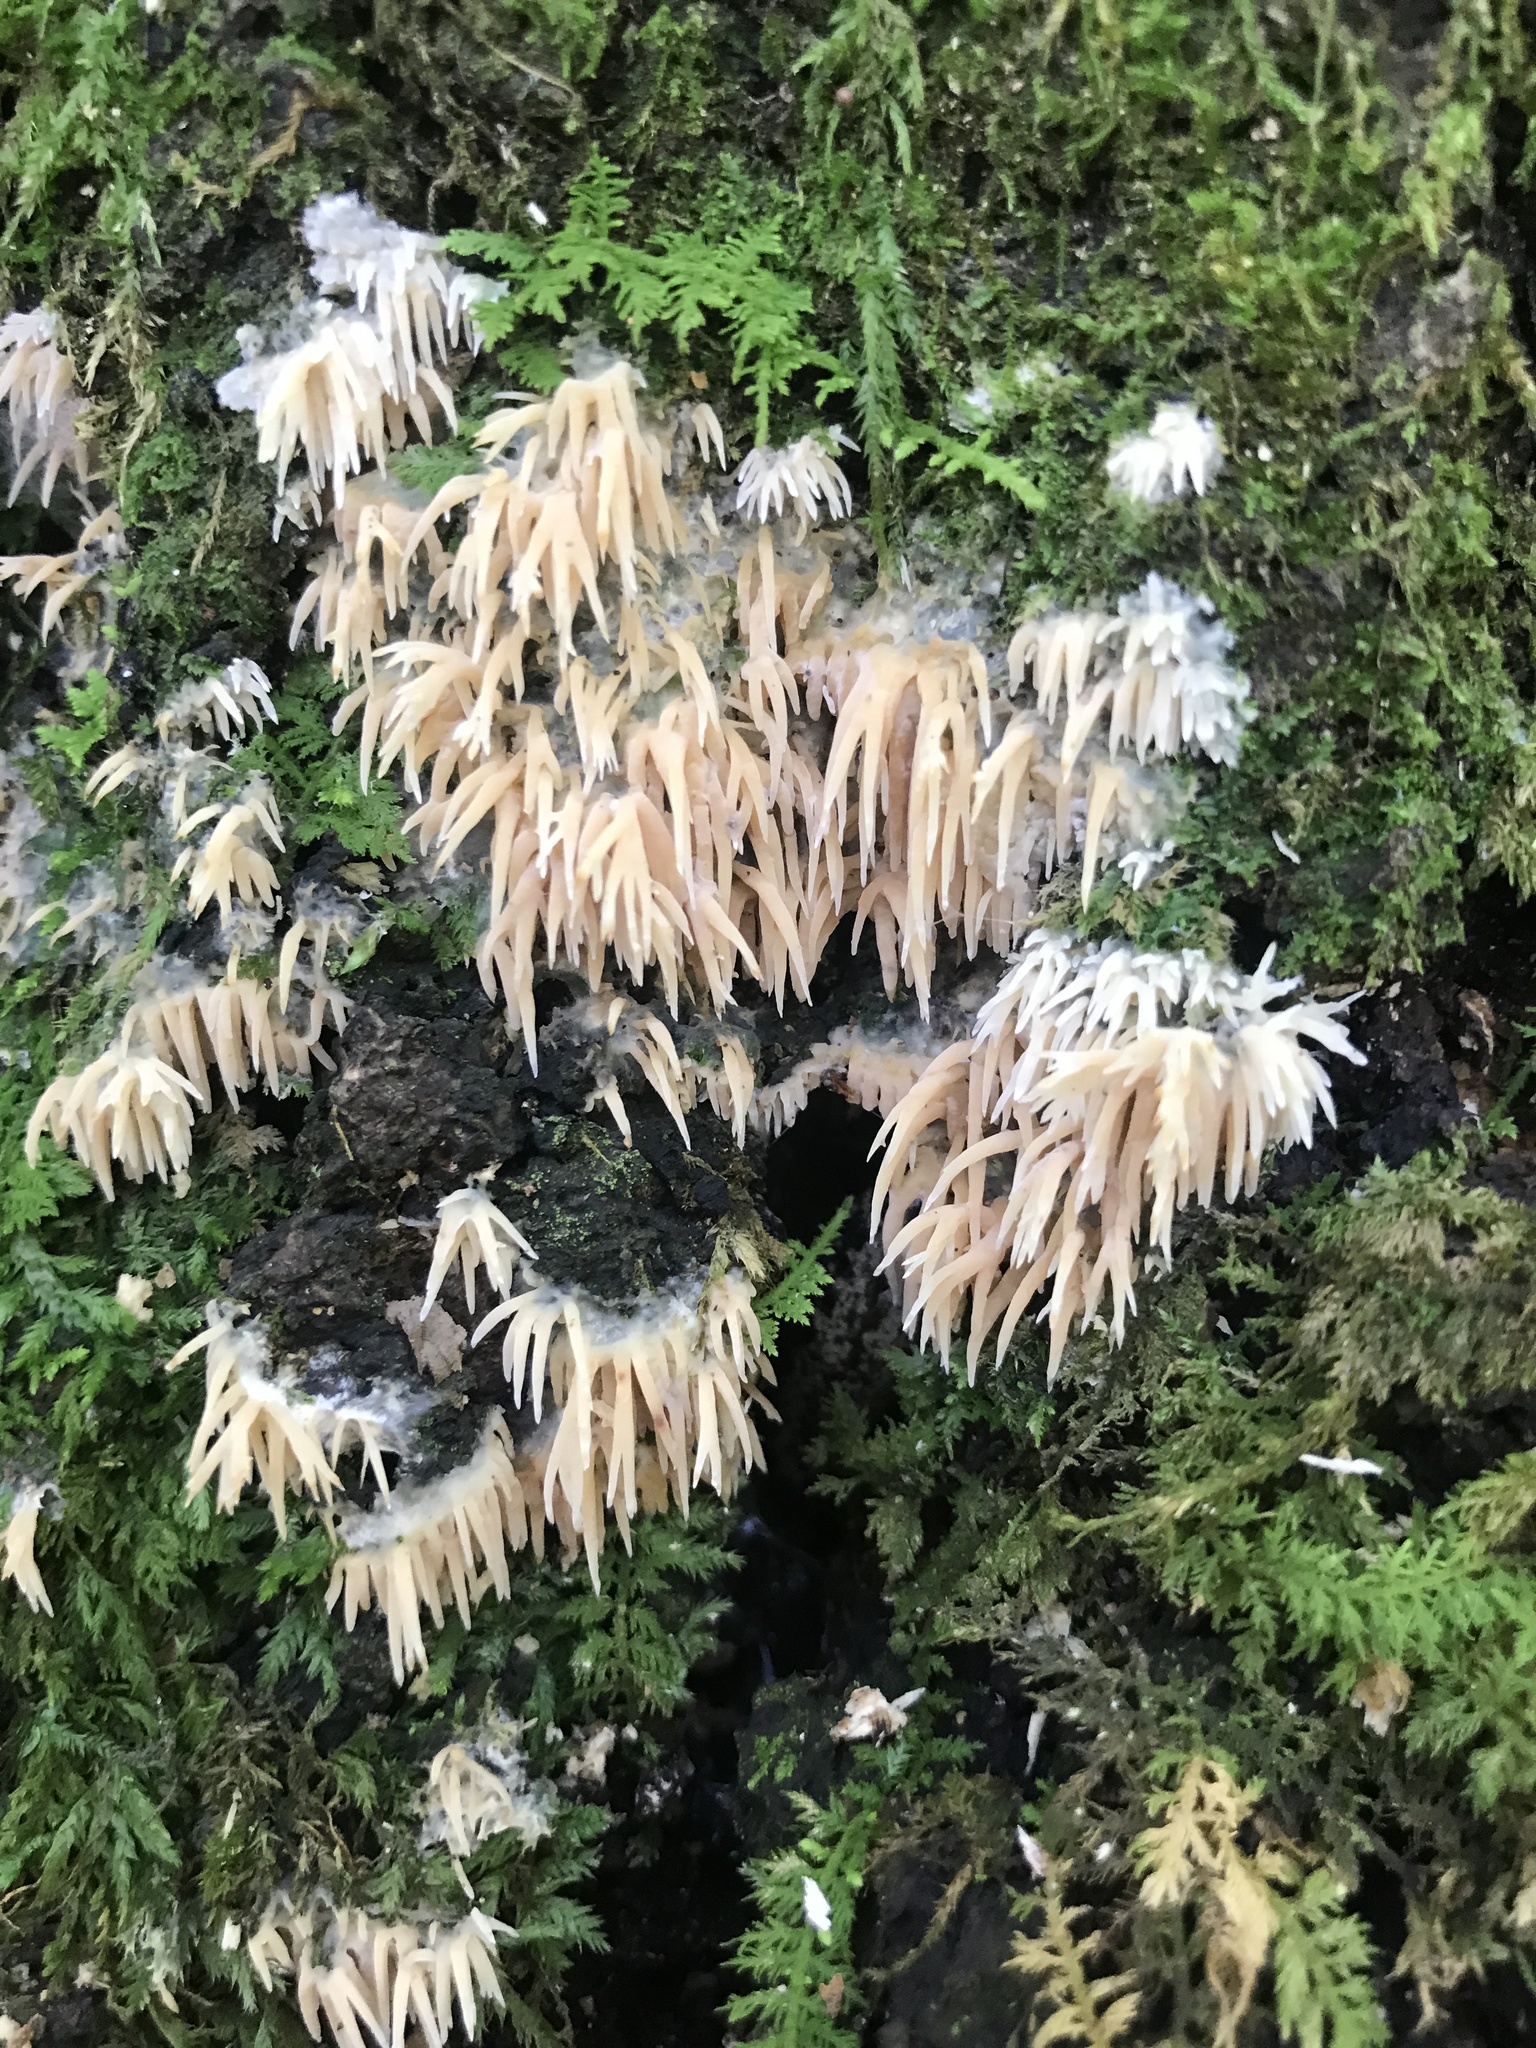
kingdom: Fungi
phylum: Basidiomycota
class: Agaricomycetes
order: Agaricales
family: Radulomycetaceae
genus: Radulomyces
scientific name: Radulomyces copelandii
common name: Asian beauty
